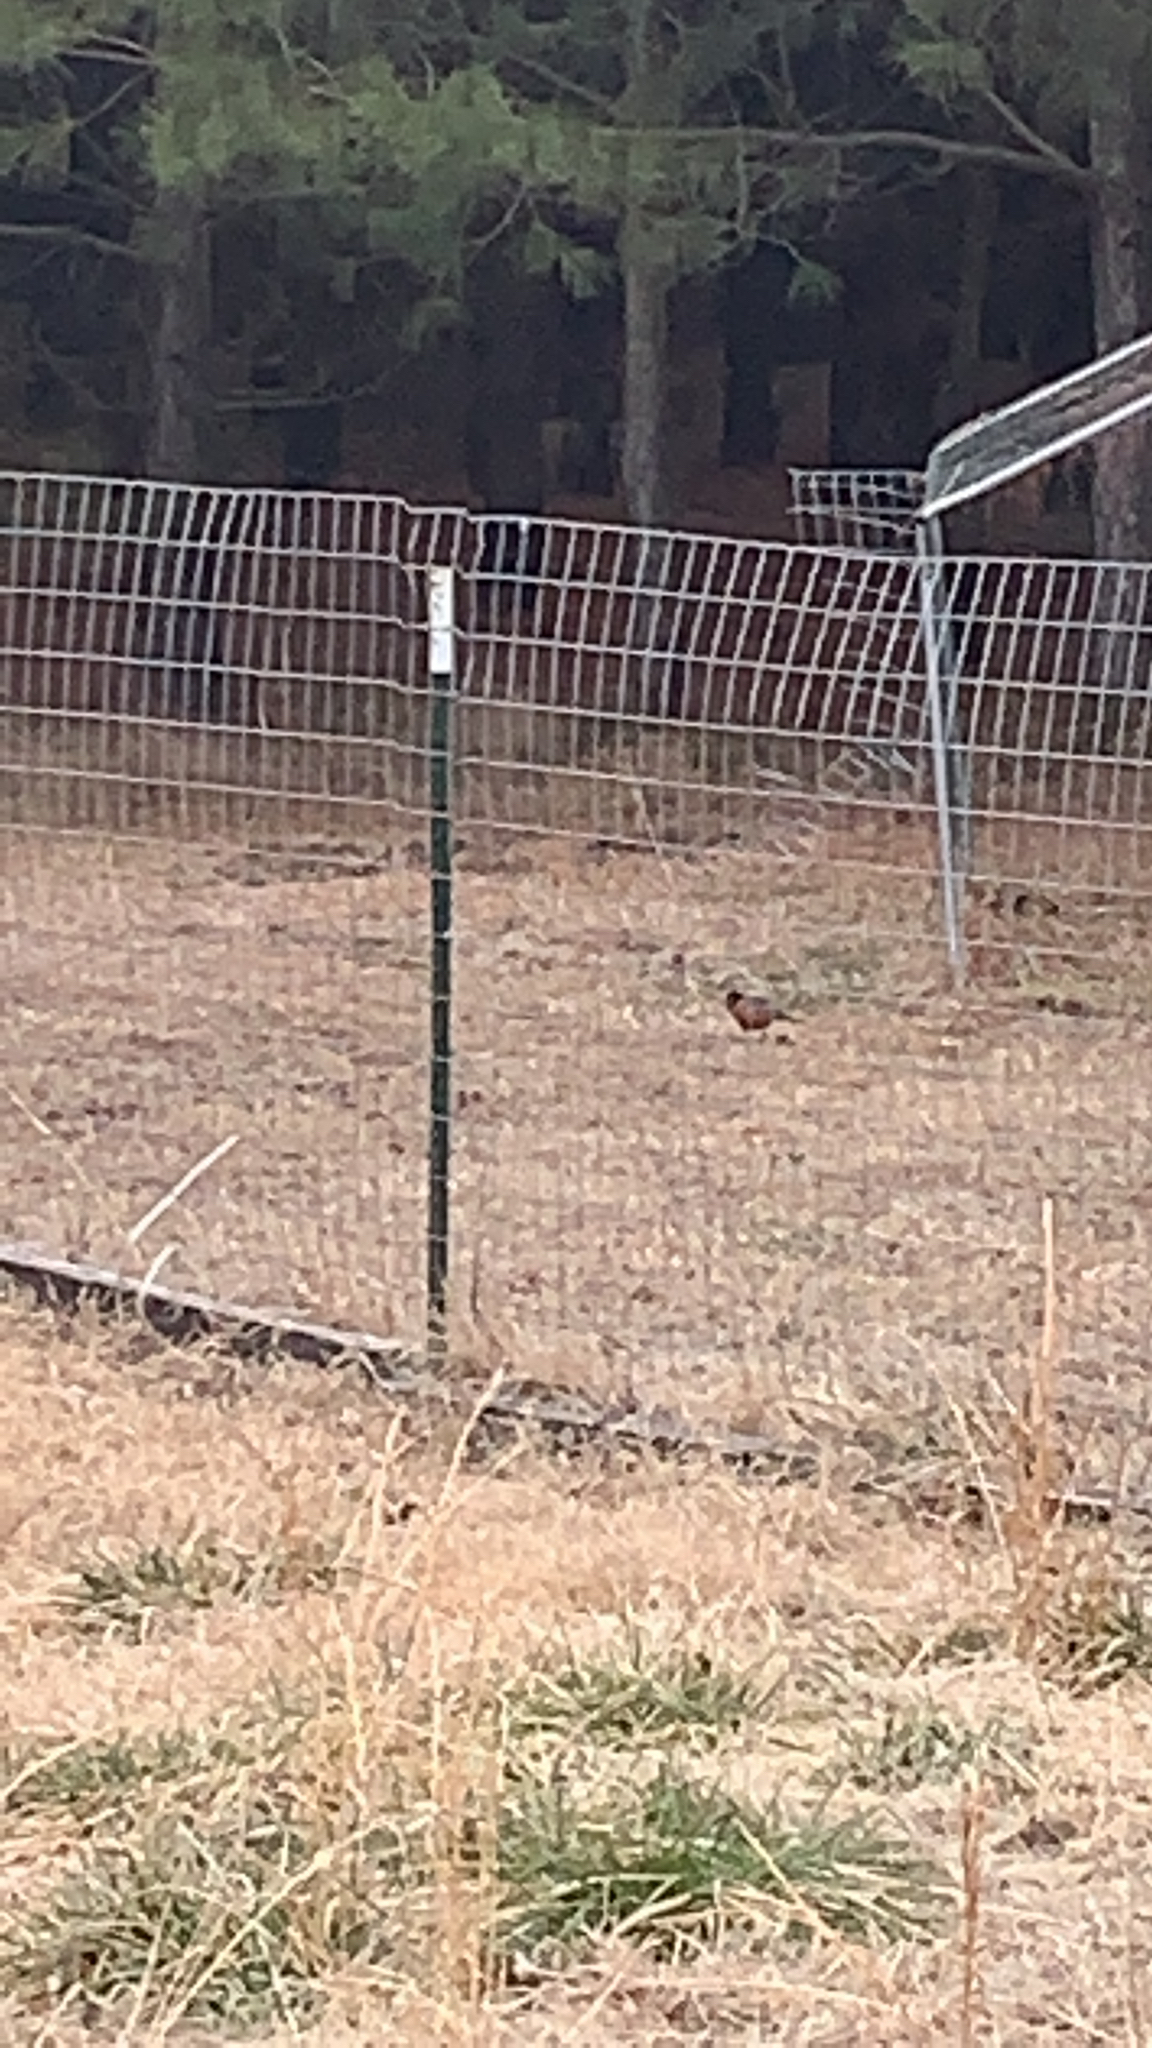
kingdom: Animalia
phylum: Chordata
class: Aves
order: Passeriformes
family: Turdidae
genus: Turdus
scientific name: Turdus migratorius
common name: American robin
